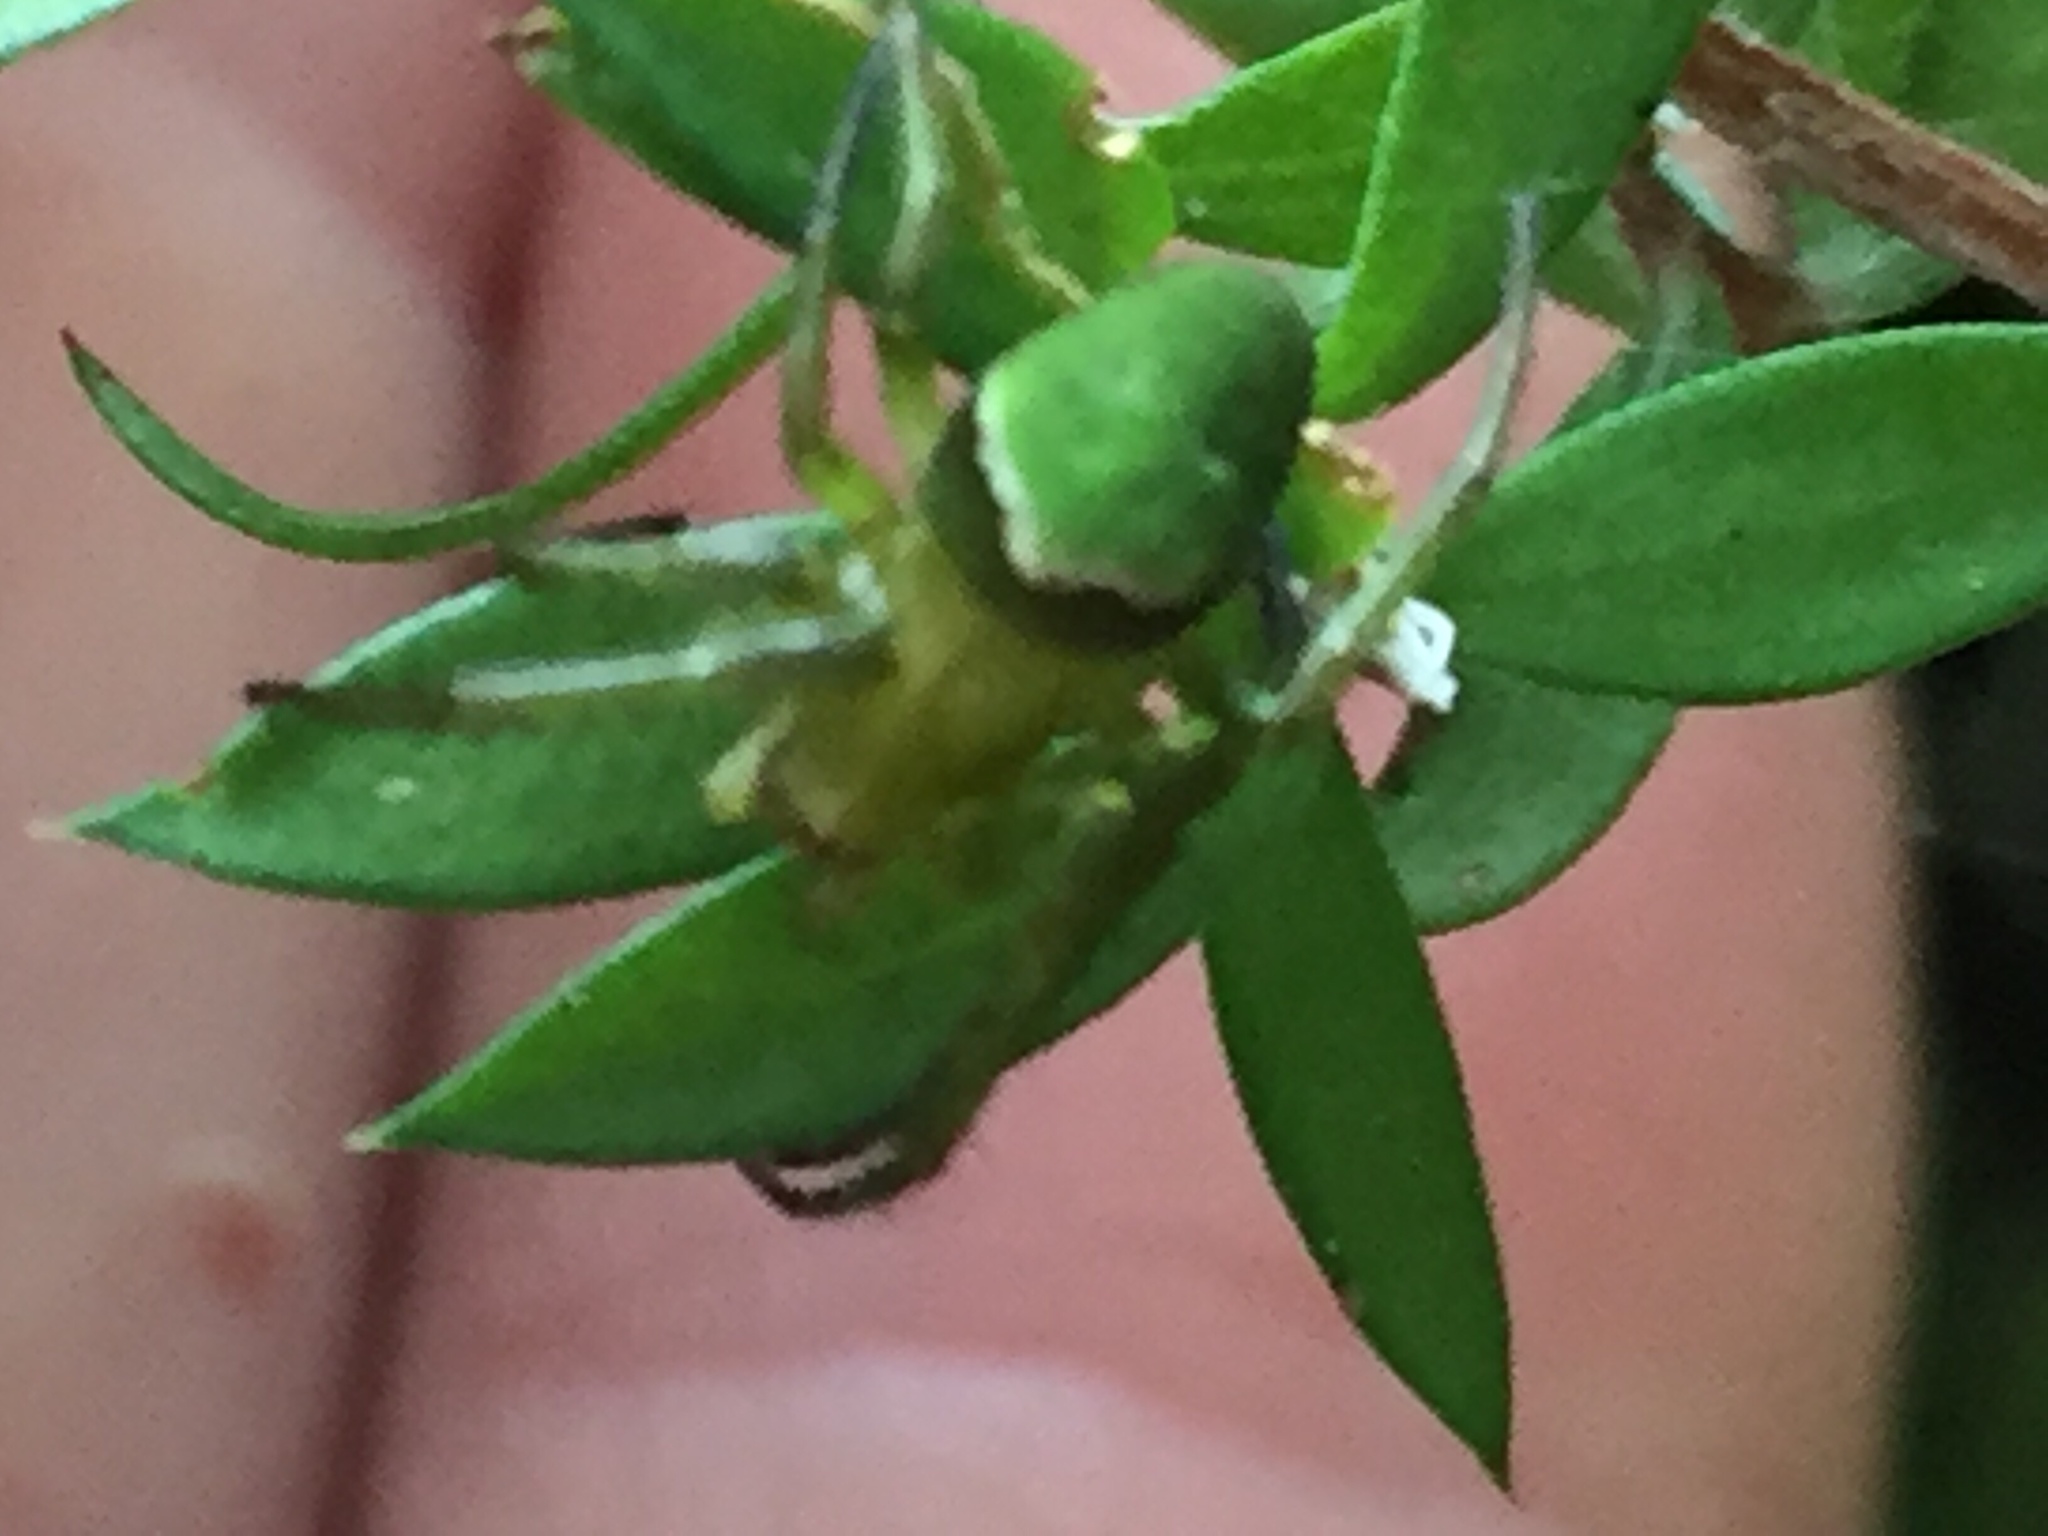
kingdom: Animalia
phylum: Arthropoda
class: Arachnida
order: Araneae
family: Araneidae
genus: Colaranea
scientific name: Colaranea viriditas
